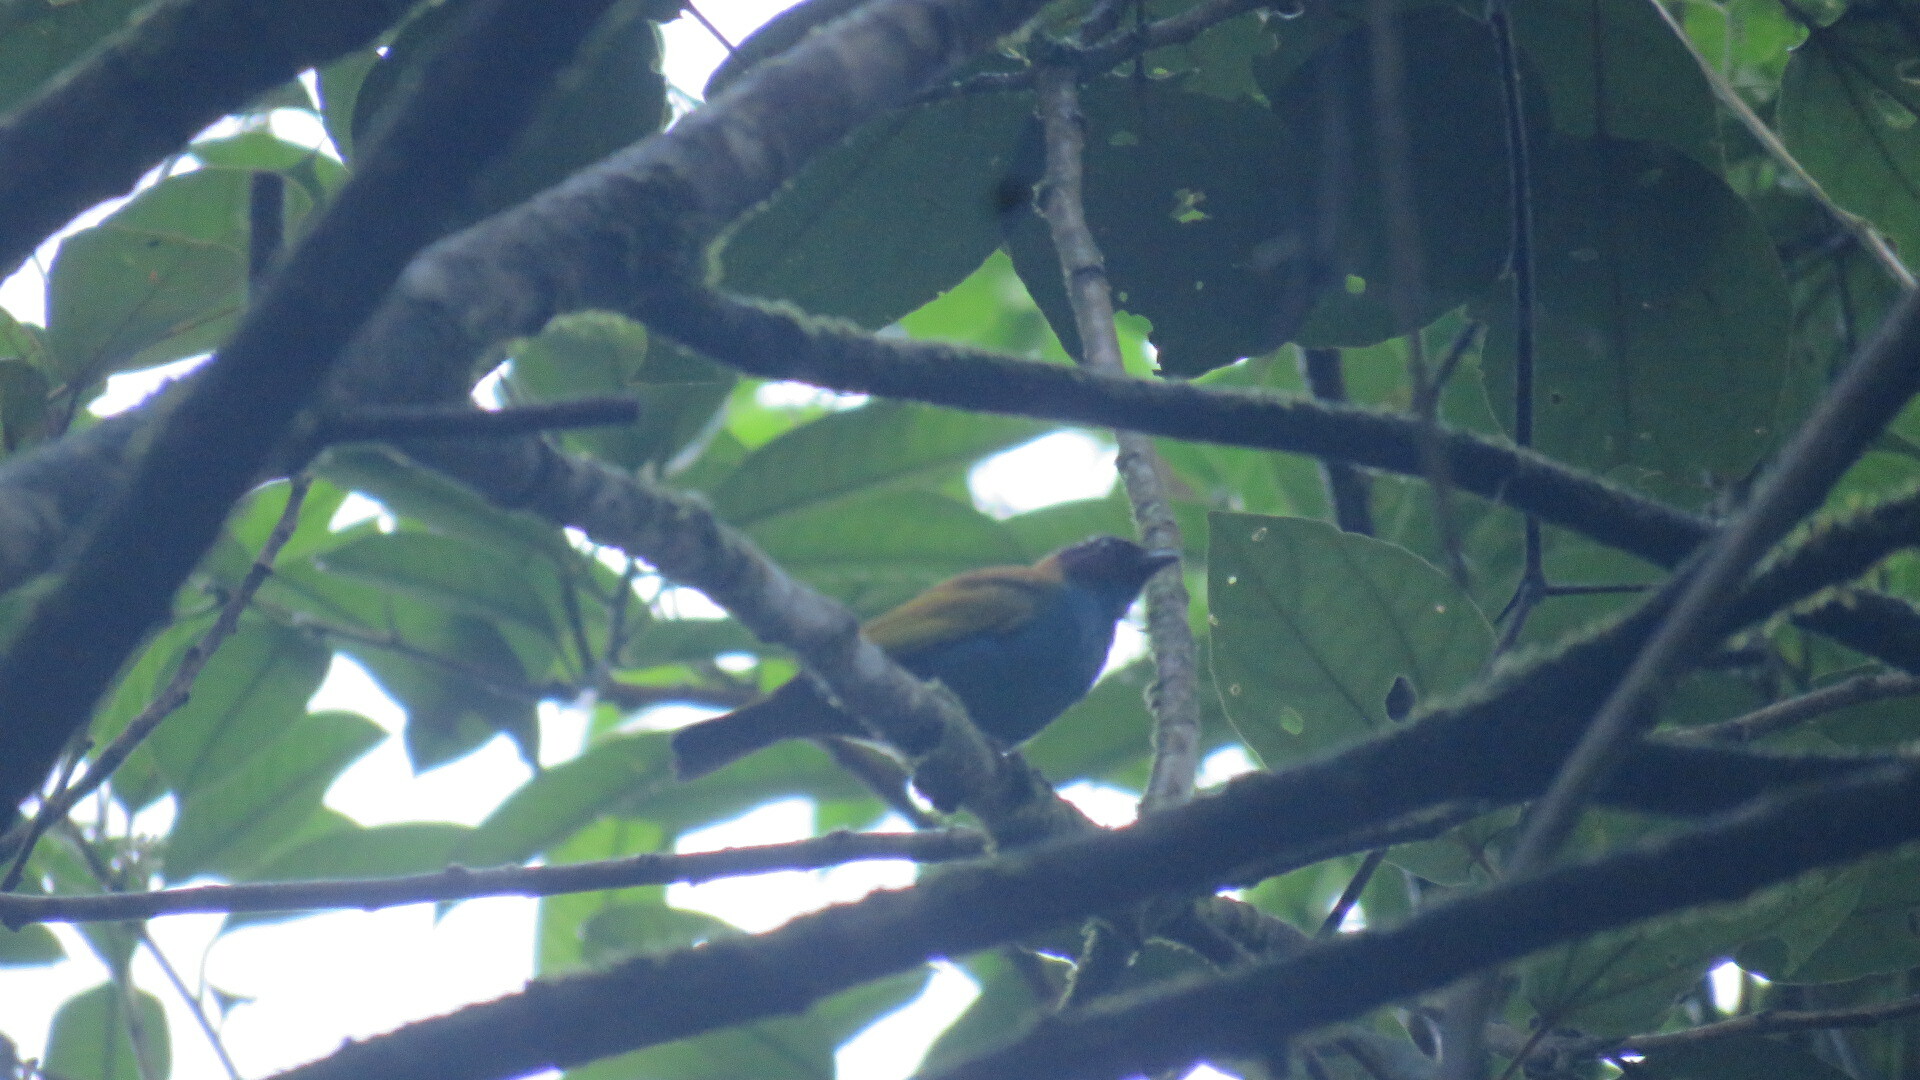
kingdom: Animalia
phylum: Chordata
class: Aves
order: Passeriformes
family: Thraupidae
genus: Tangara
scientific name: Tangara gyrola
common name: Bay-headed tanager
